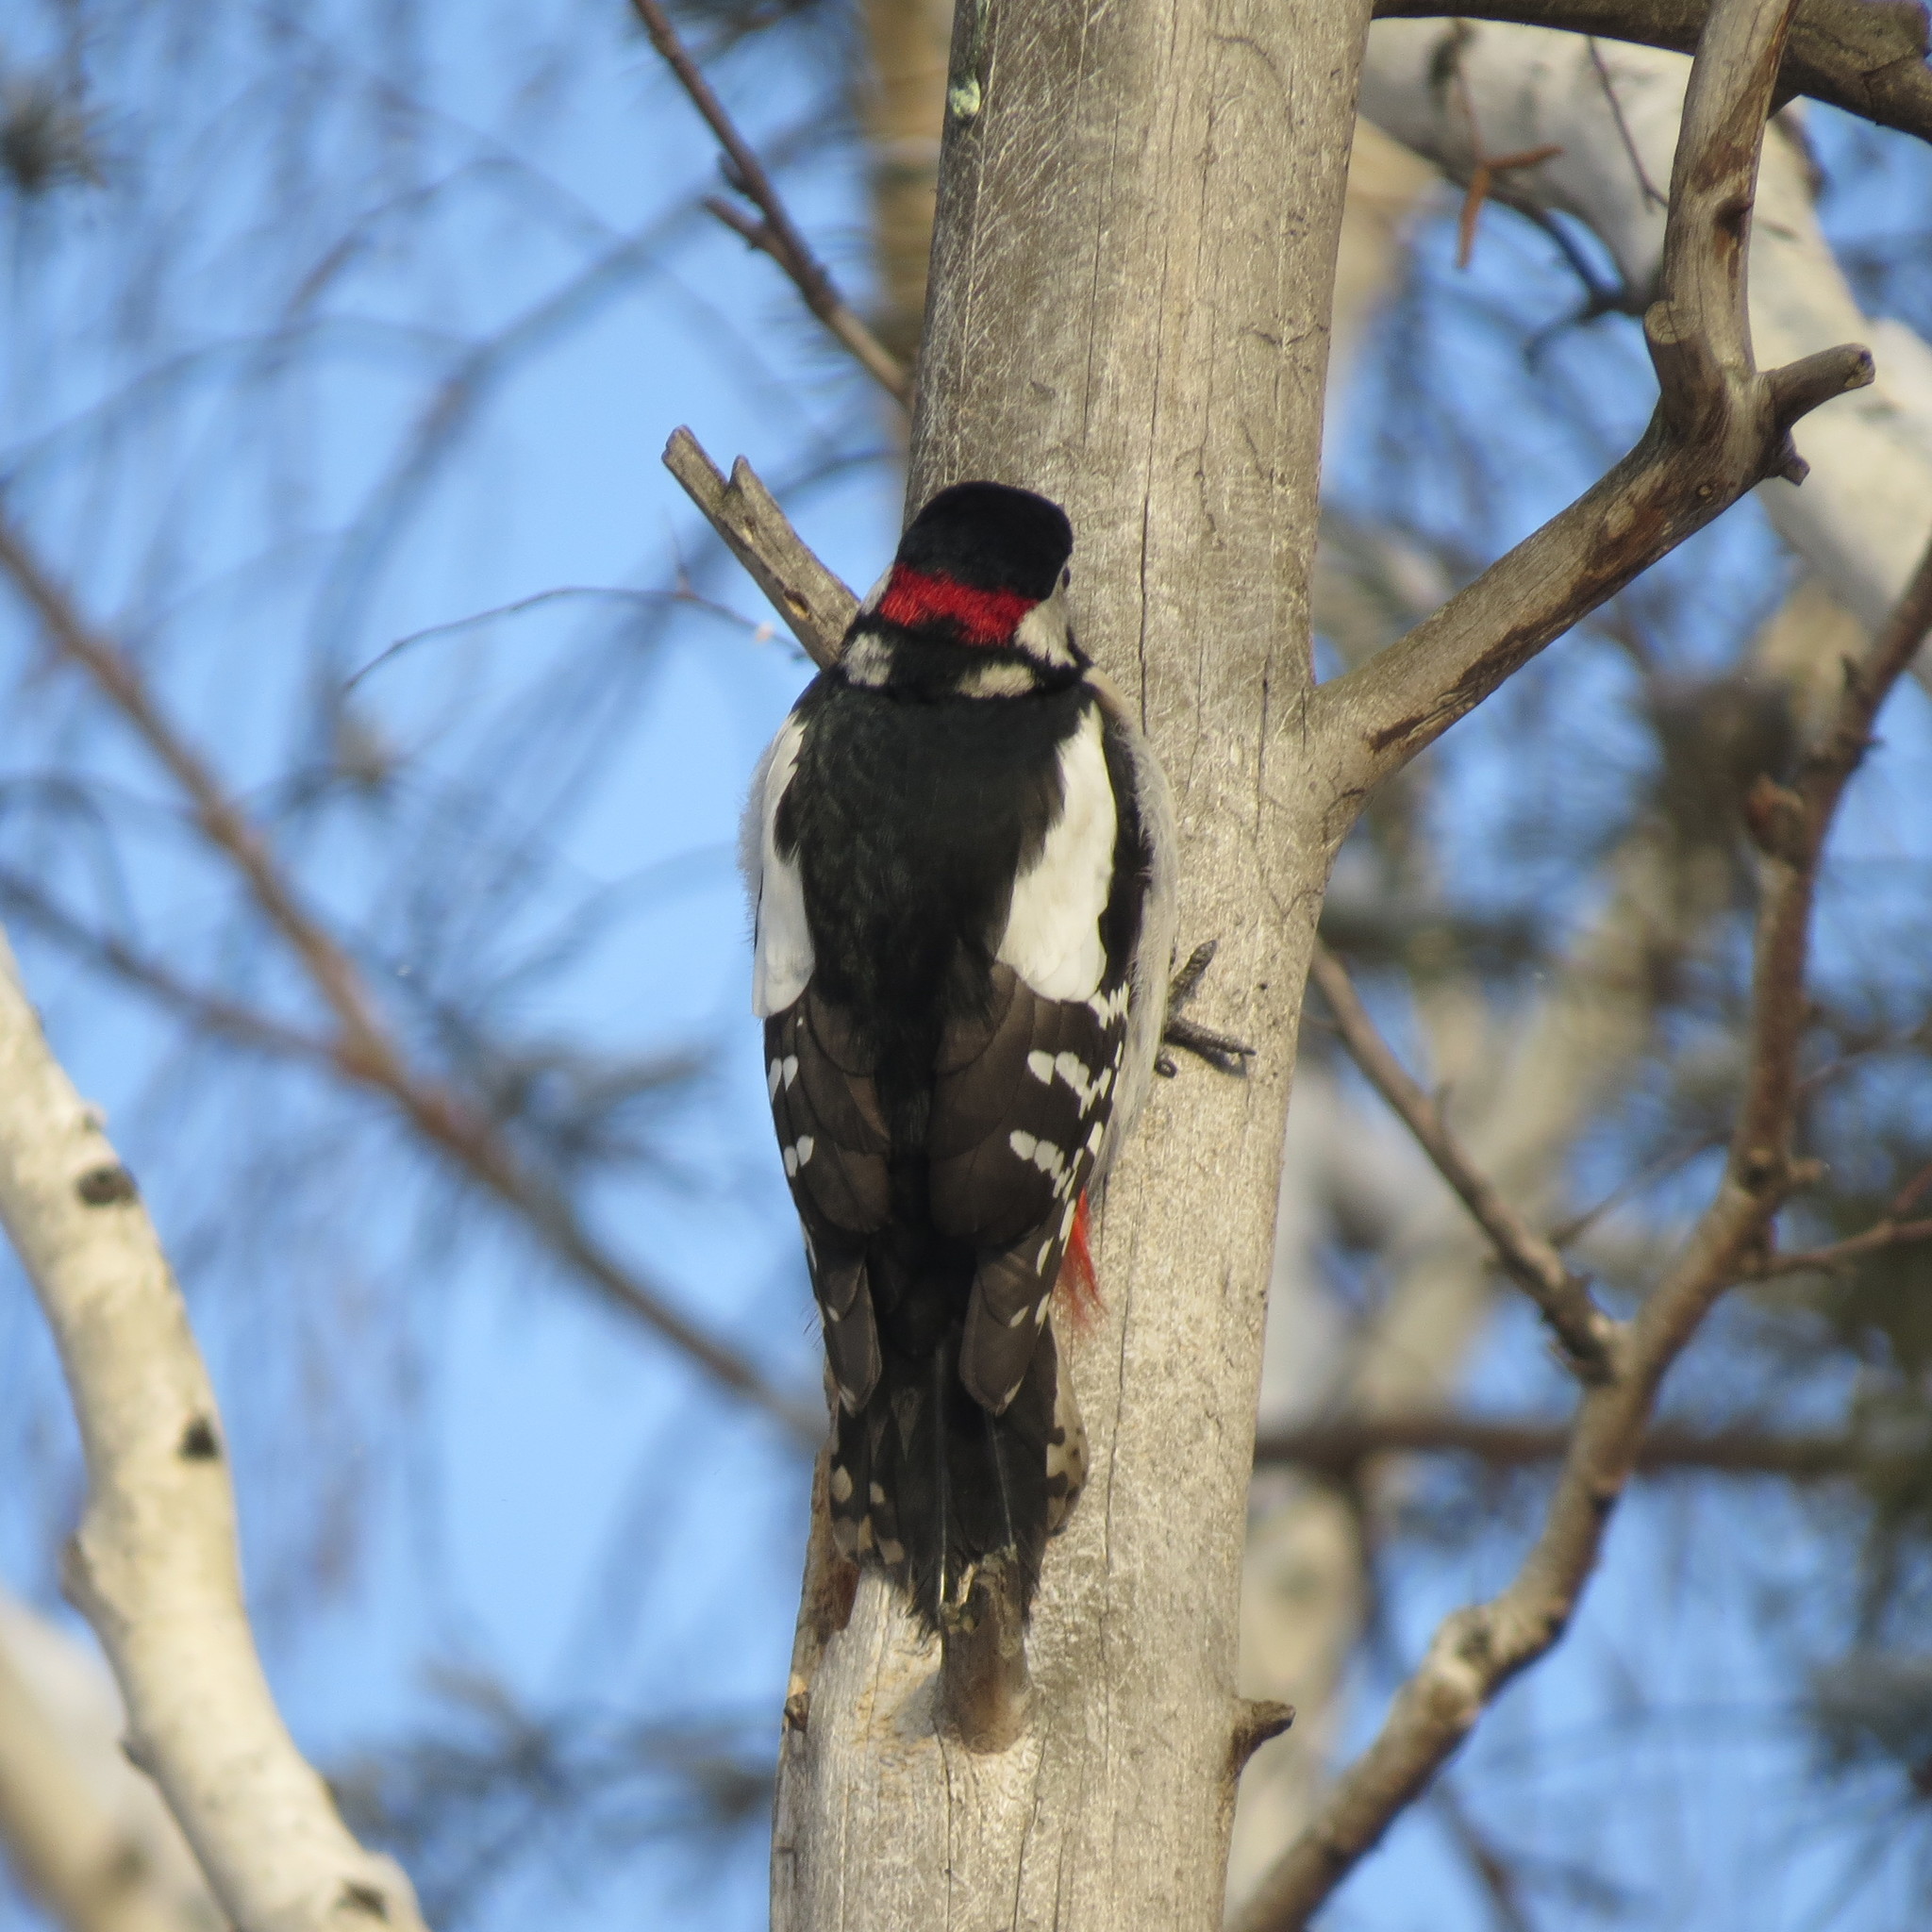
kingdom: Animalia
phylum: Chordata
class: Aves
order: Piciformes
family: Picidae
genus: Dendrocopos
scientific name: Dendrocopos major
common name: Great spotted woodpecker
